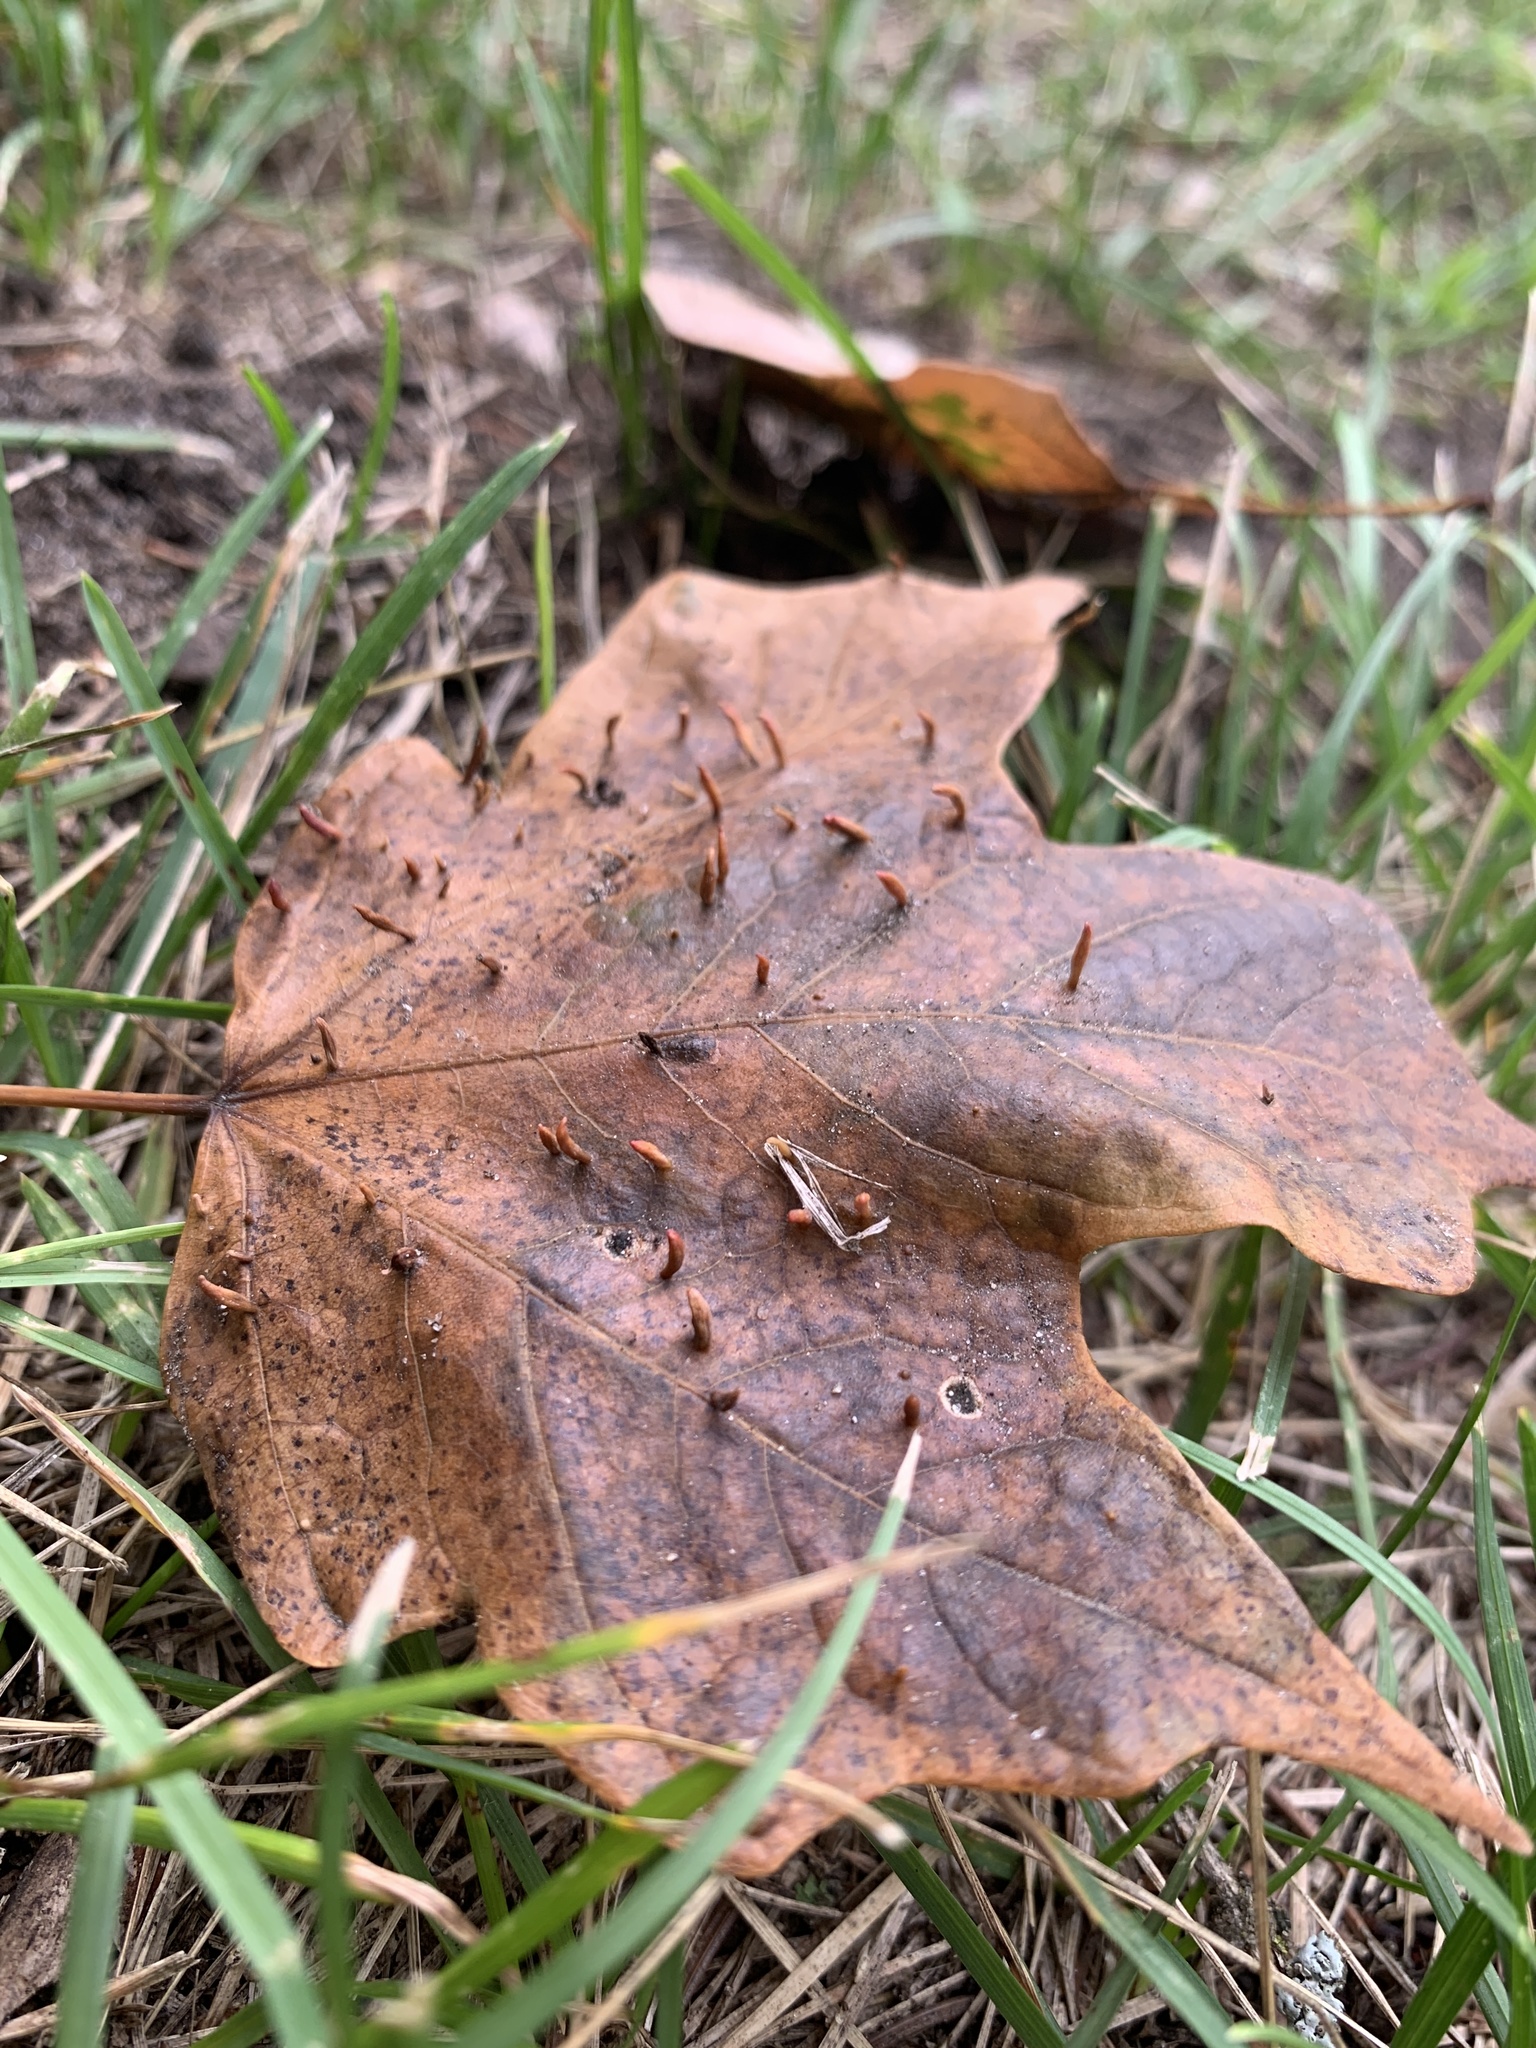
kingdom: Animalia
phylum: Arthropoda
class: Arachnida
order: Trombidiformes
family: Eriophyidae
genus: Vasates
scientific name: Vasates aceriscrumena
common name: Maple spindle gall mite
